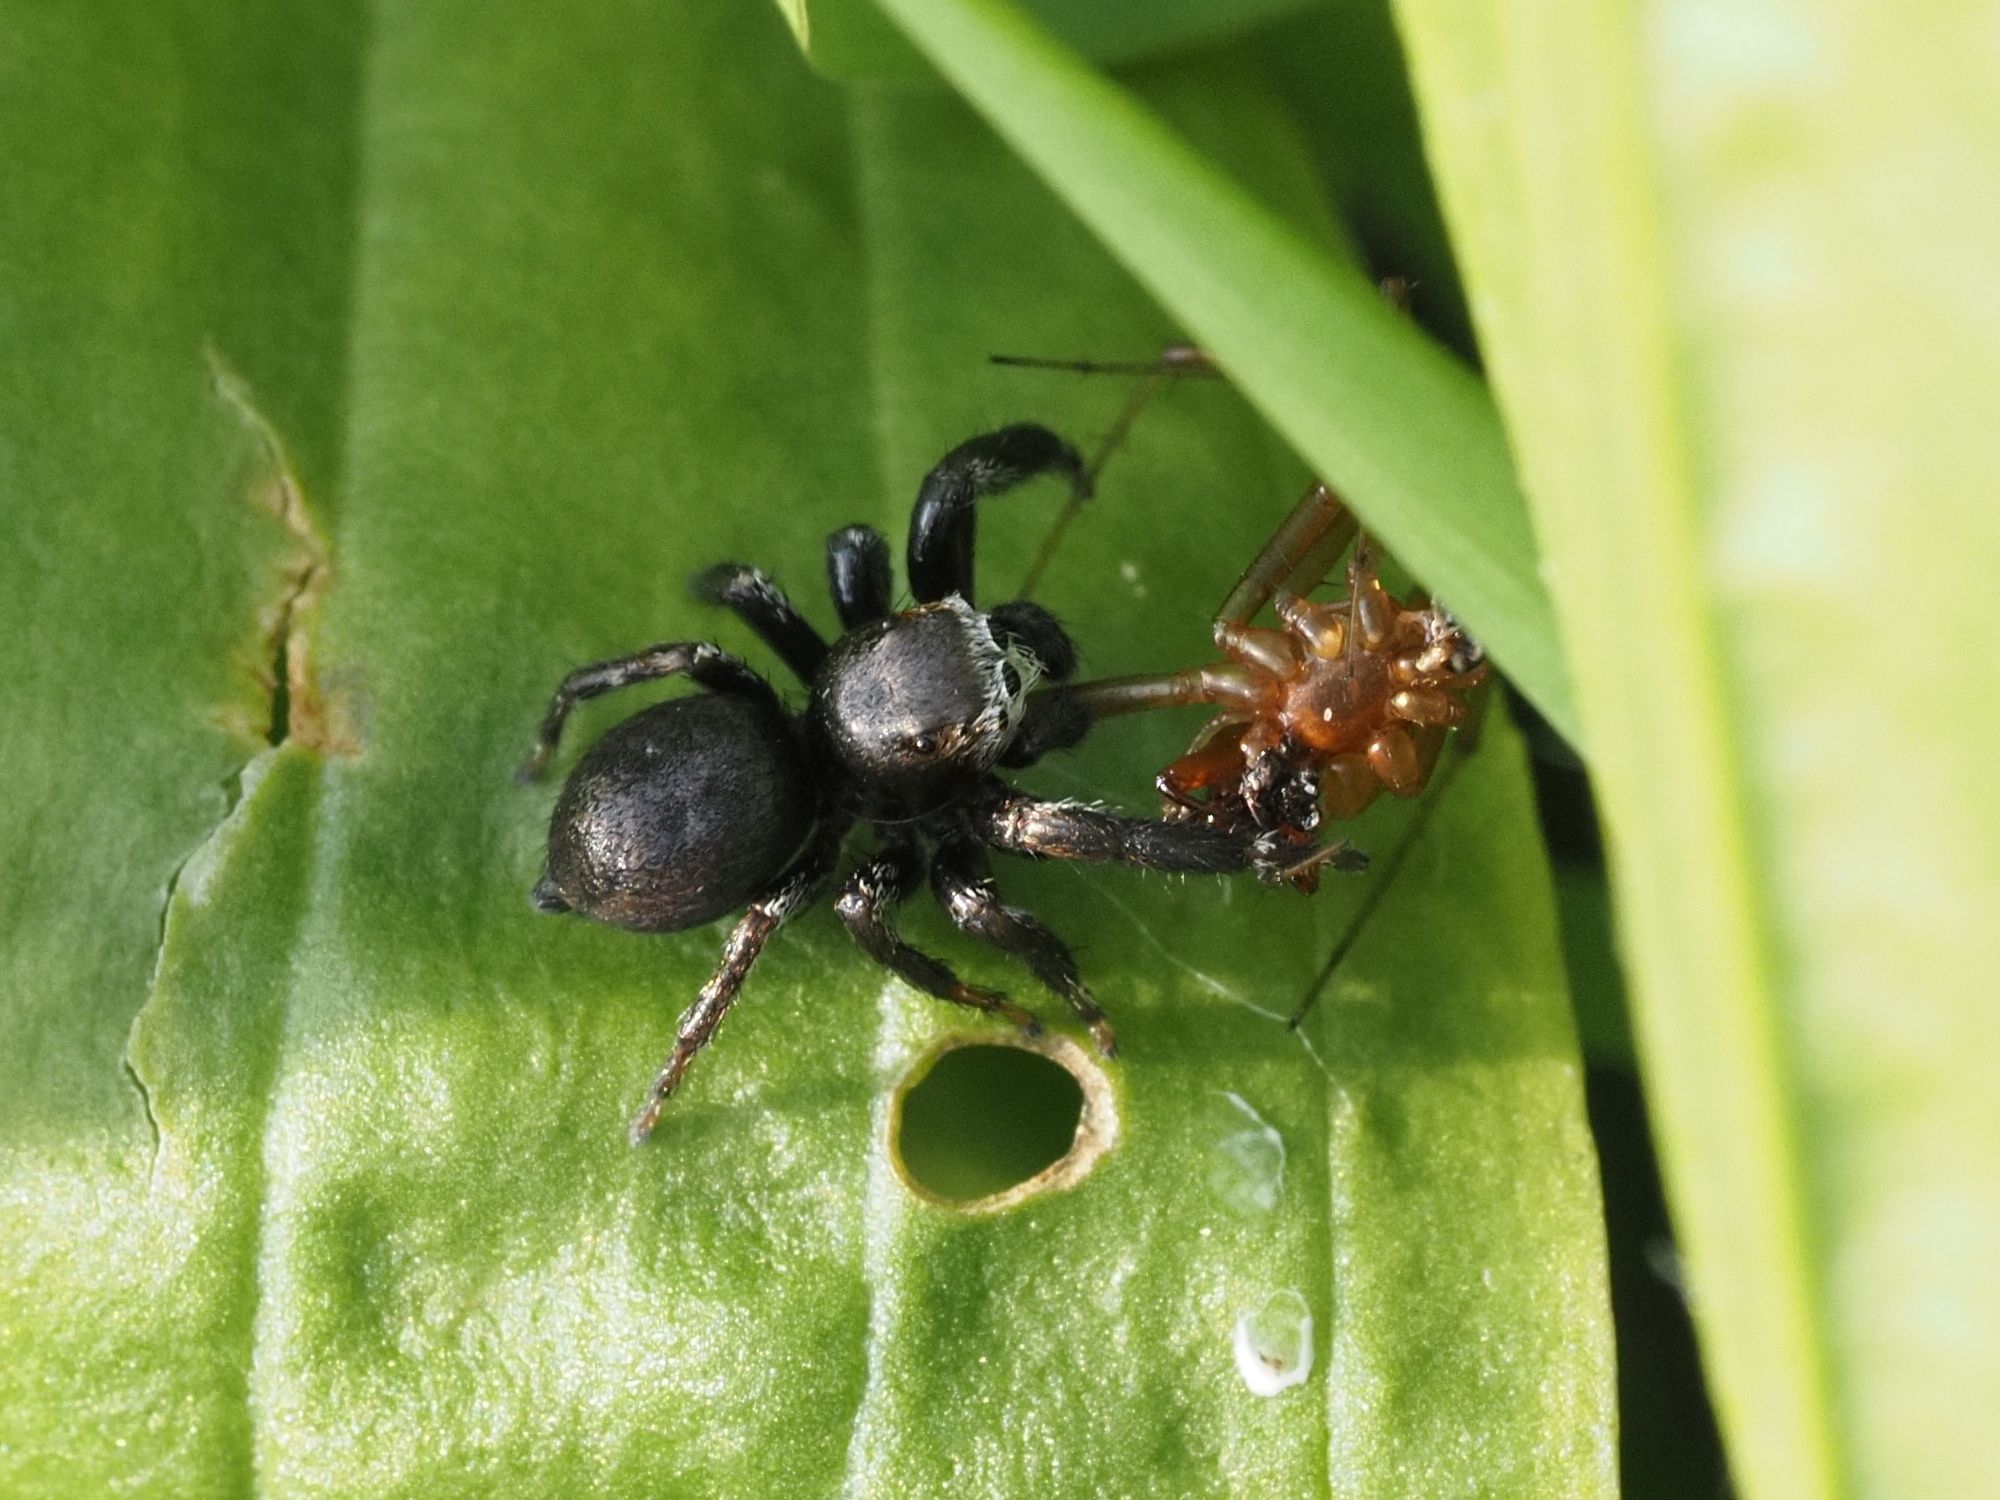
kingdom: Animalia
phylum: Arthropoda
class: Arachnida
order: Araneae
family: Salticidae
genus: Evarcha
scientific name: Evarcha arcuata
